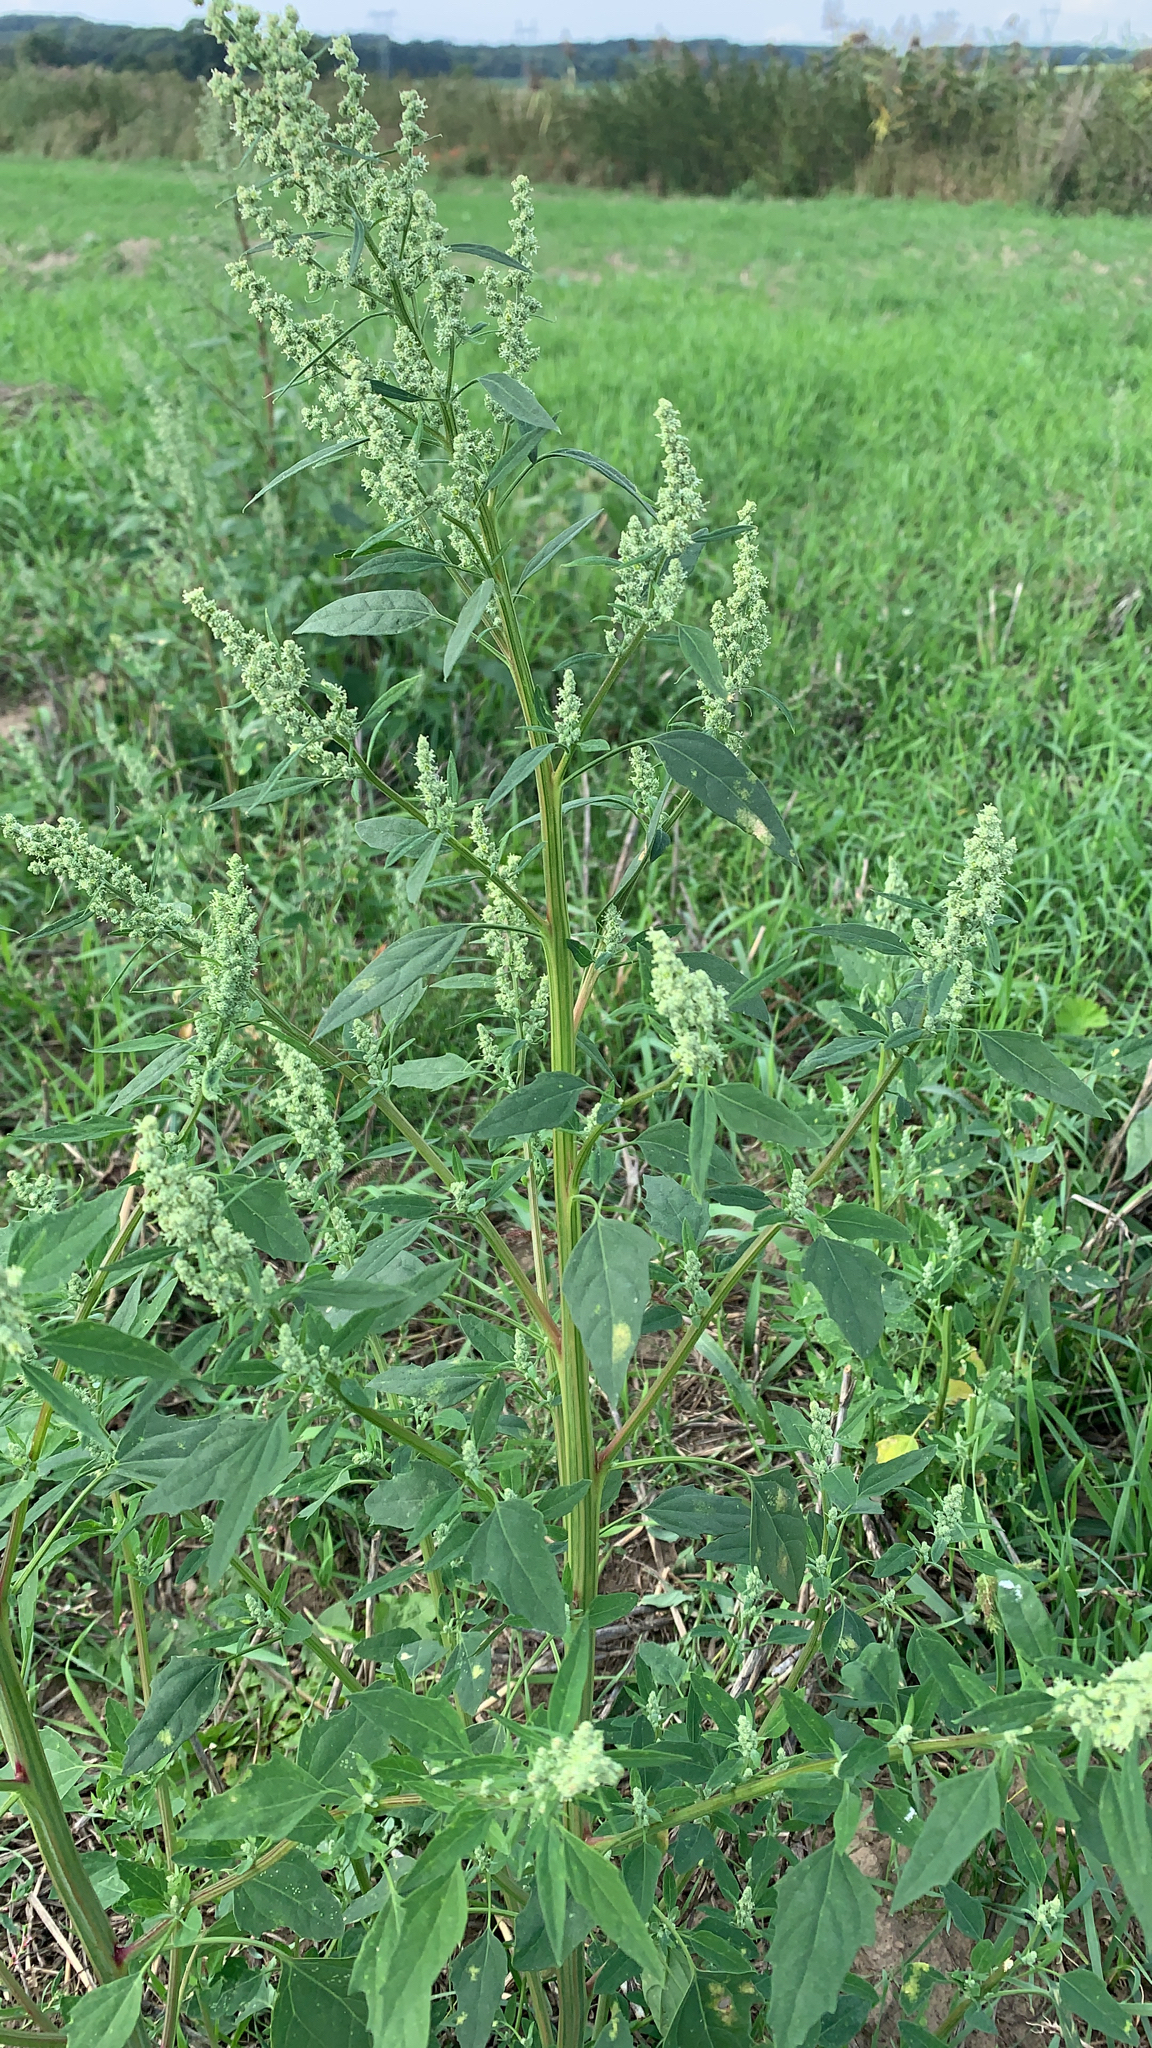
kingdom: Plantae
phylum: Tracheophyta
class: Magnoliopsida
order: Caryophyllales
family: Amaranthaceae
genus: Chenopodium
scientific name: Chenopodium album
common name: Fat-hen
